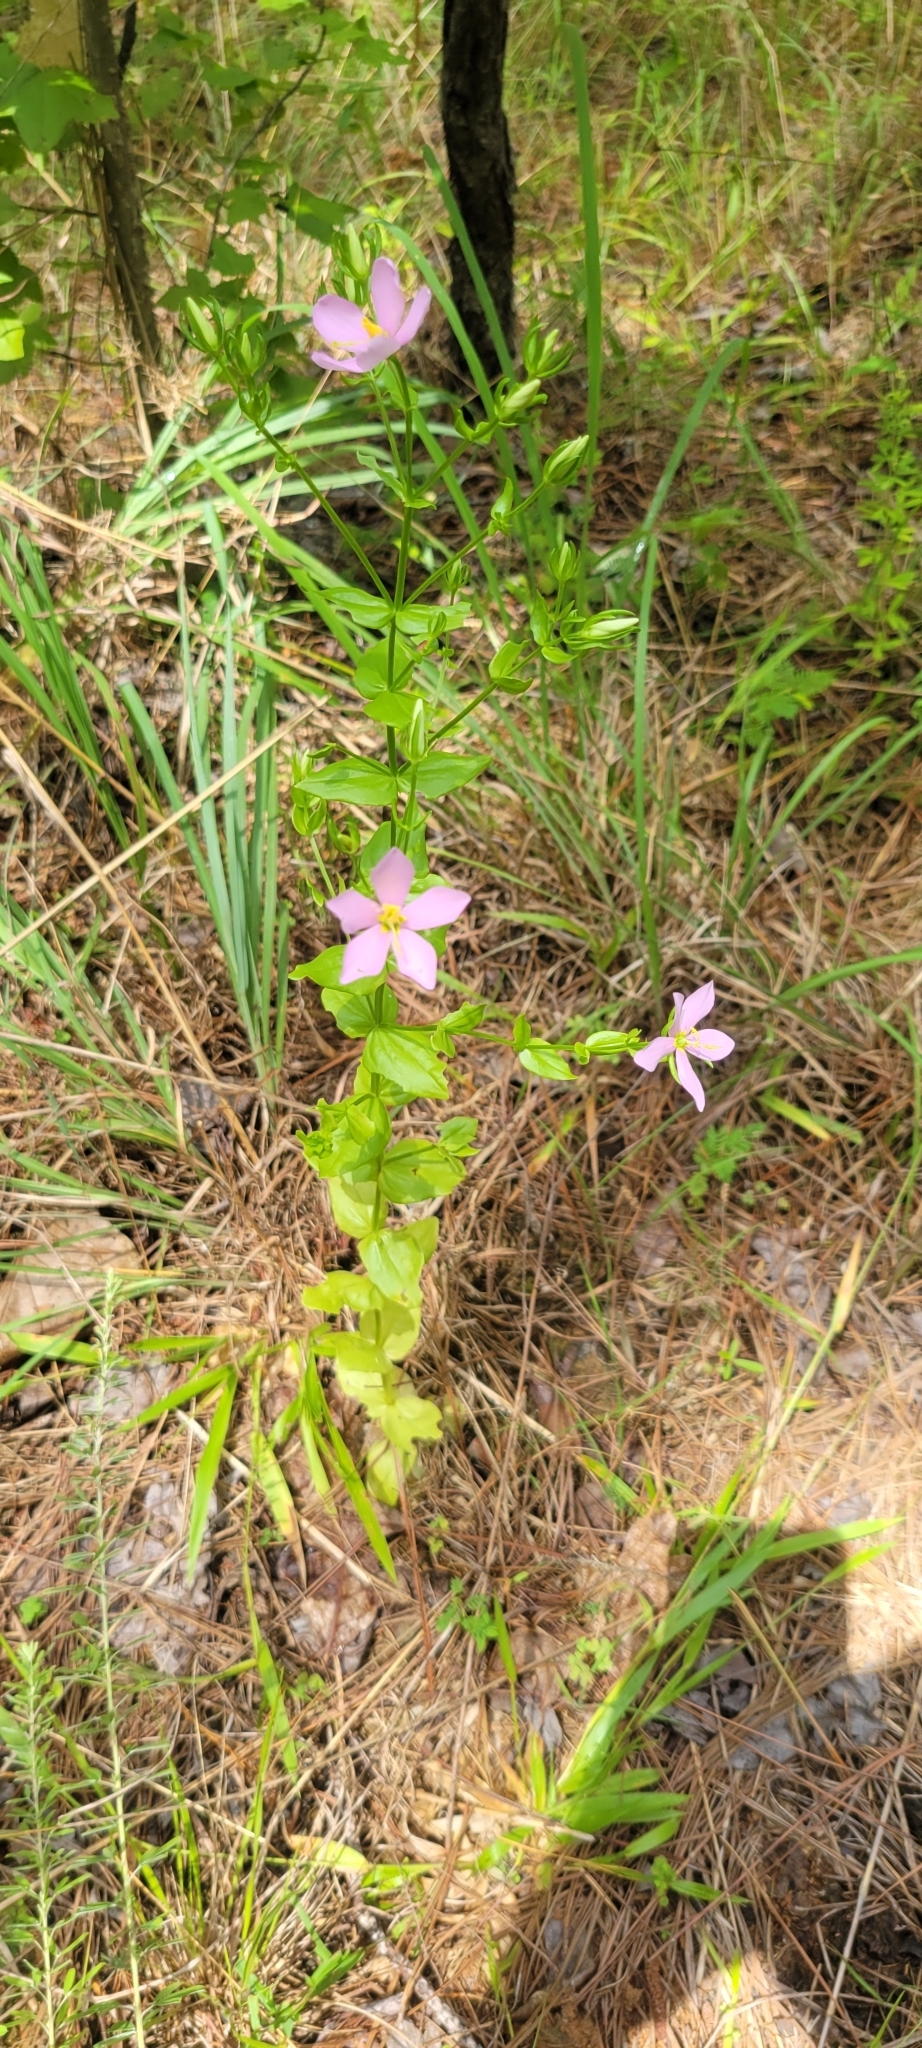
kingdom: Plantae
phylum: Tracheophyta
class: Magnoliopsida
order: Gentianales
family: Gentianaceae
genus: Sabatia
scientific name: Sabatia angularis
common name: Rose-pink
